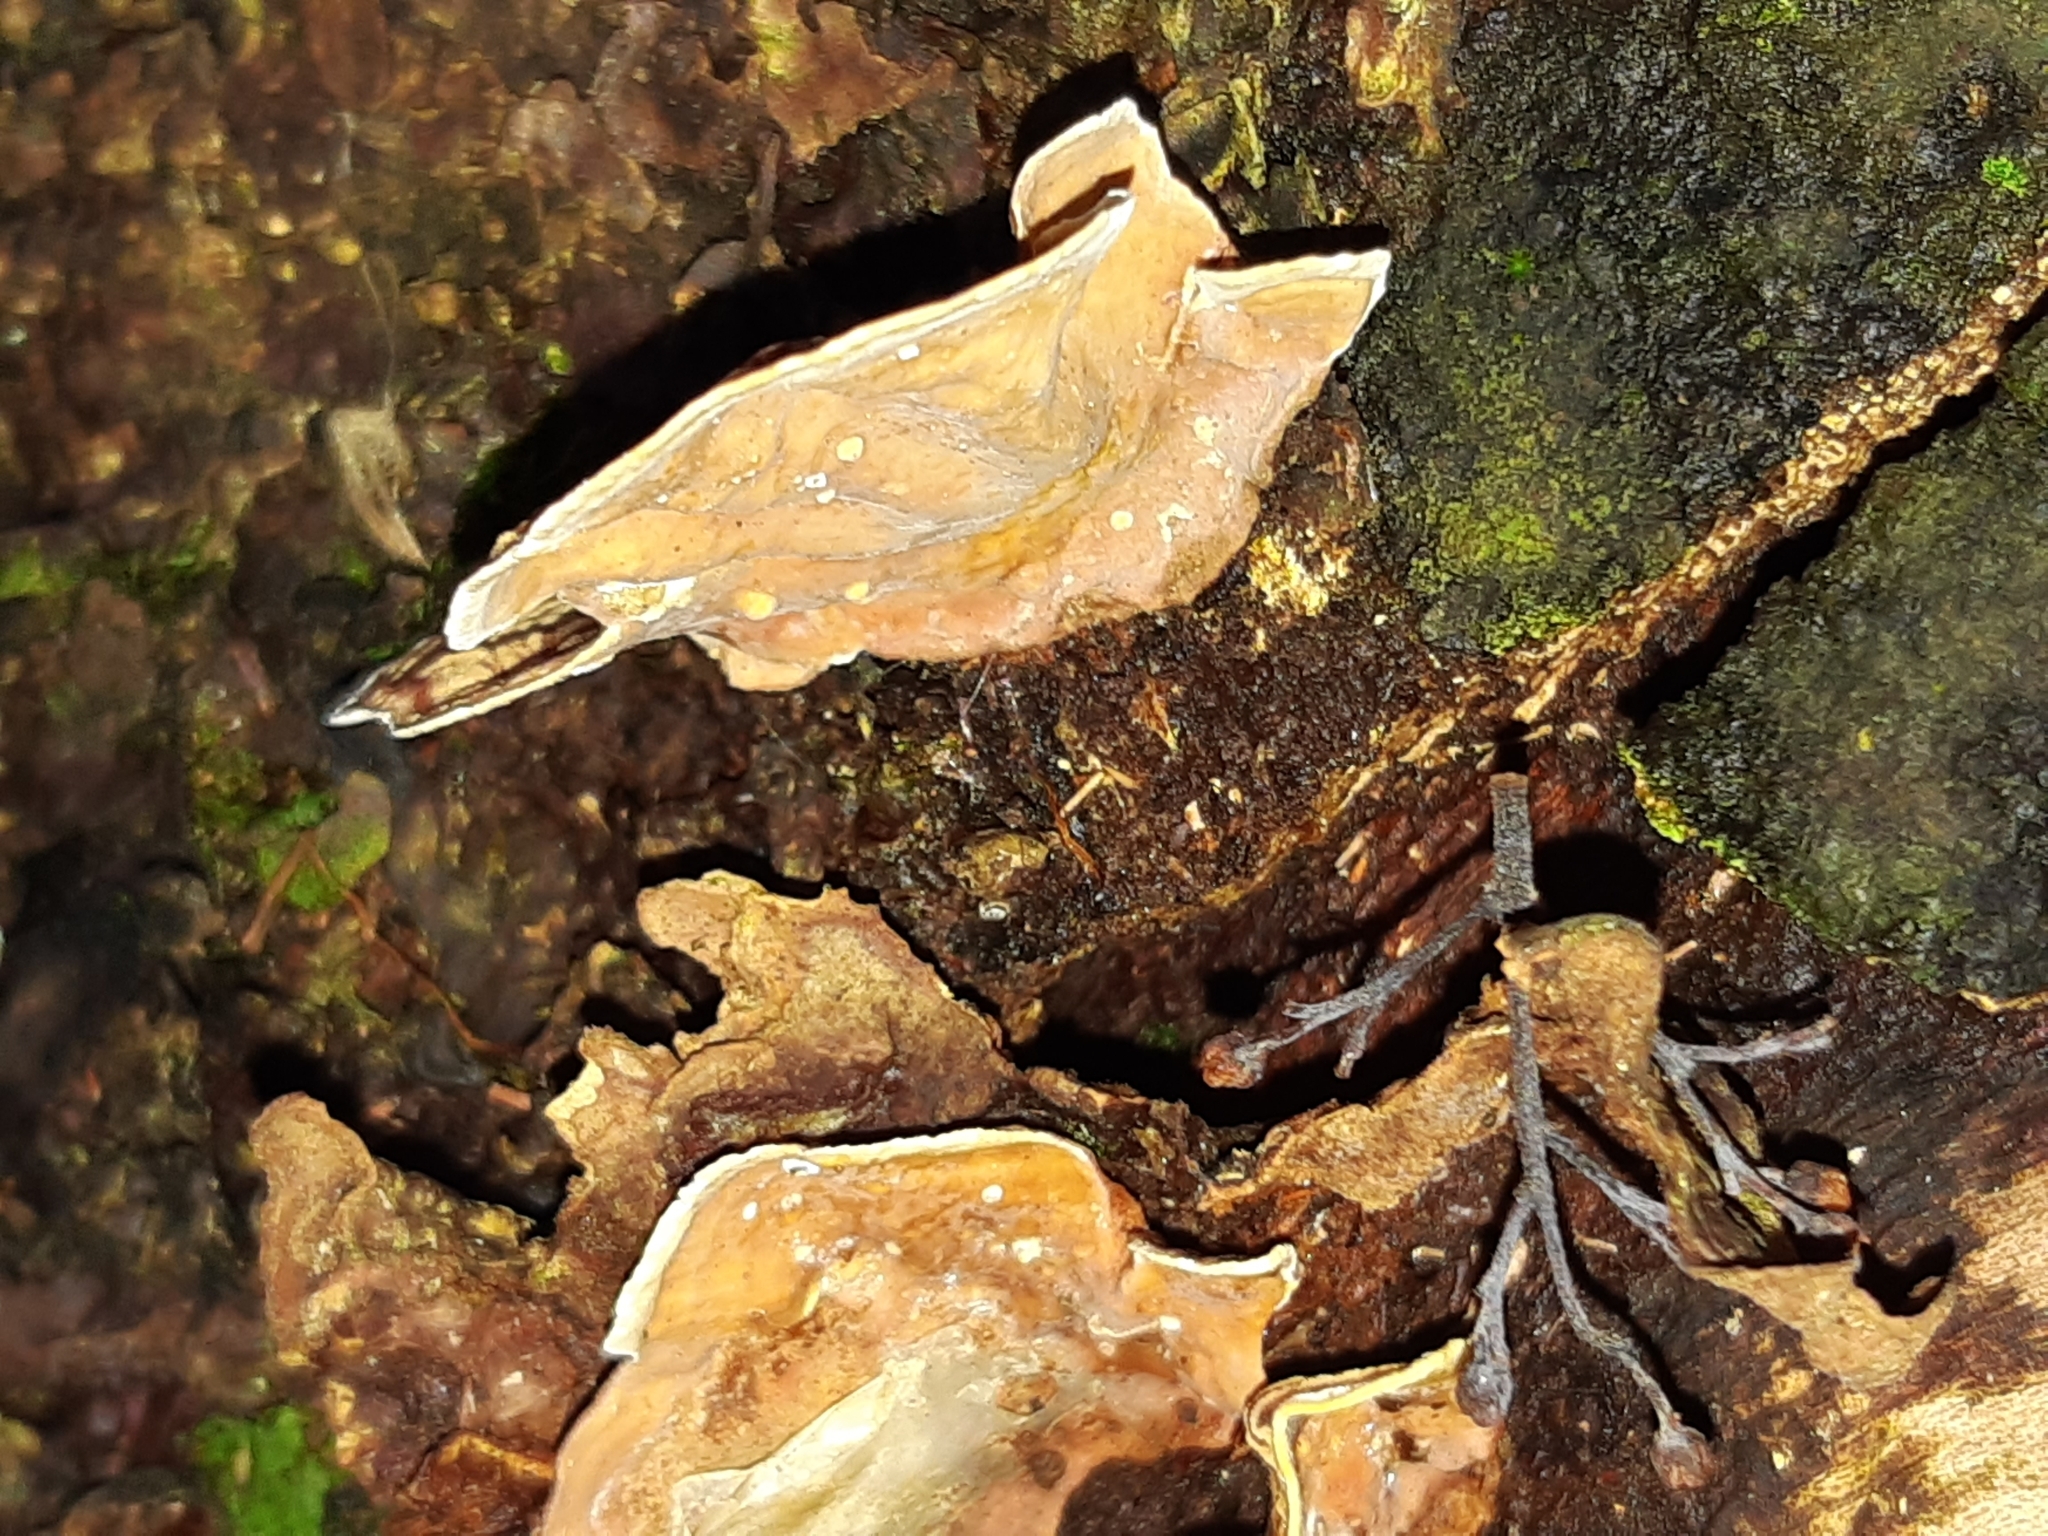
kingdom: Fungi
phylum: Basidiomycota
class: Agaricomycetes
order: Russulales
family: Stereaceae
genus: Stereum
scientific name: Stereum versicolor
